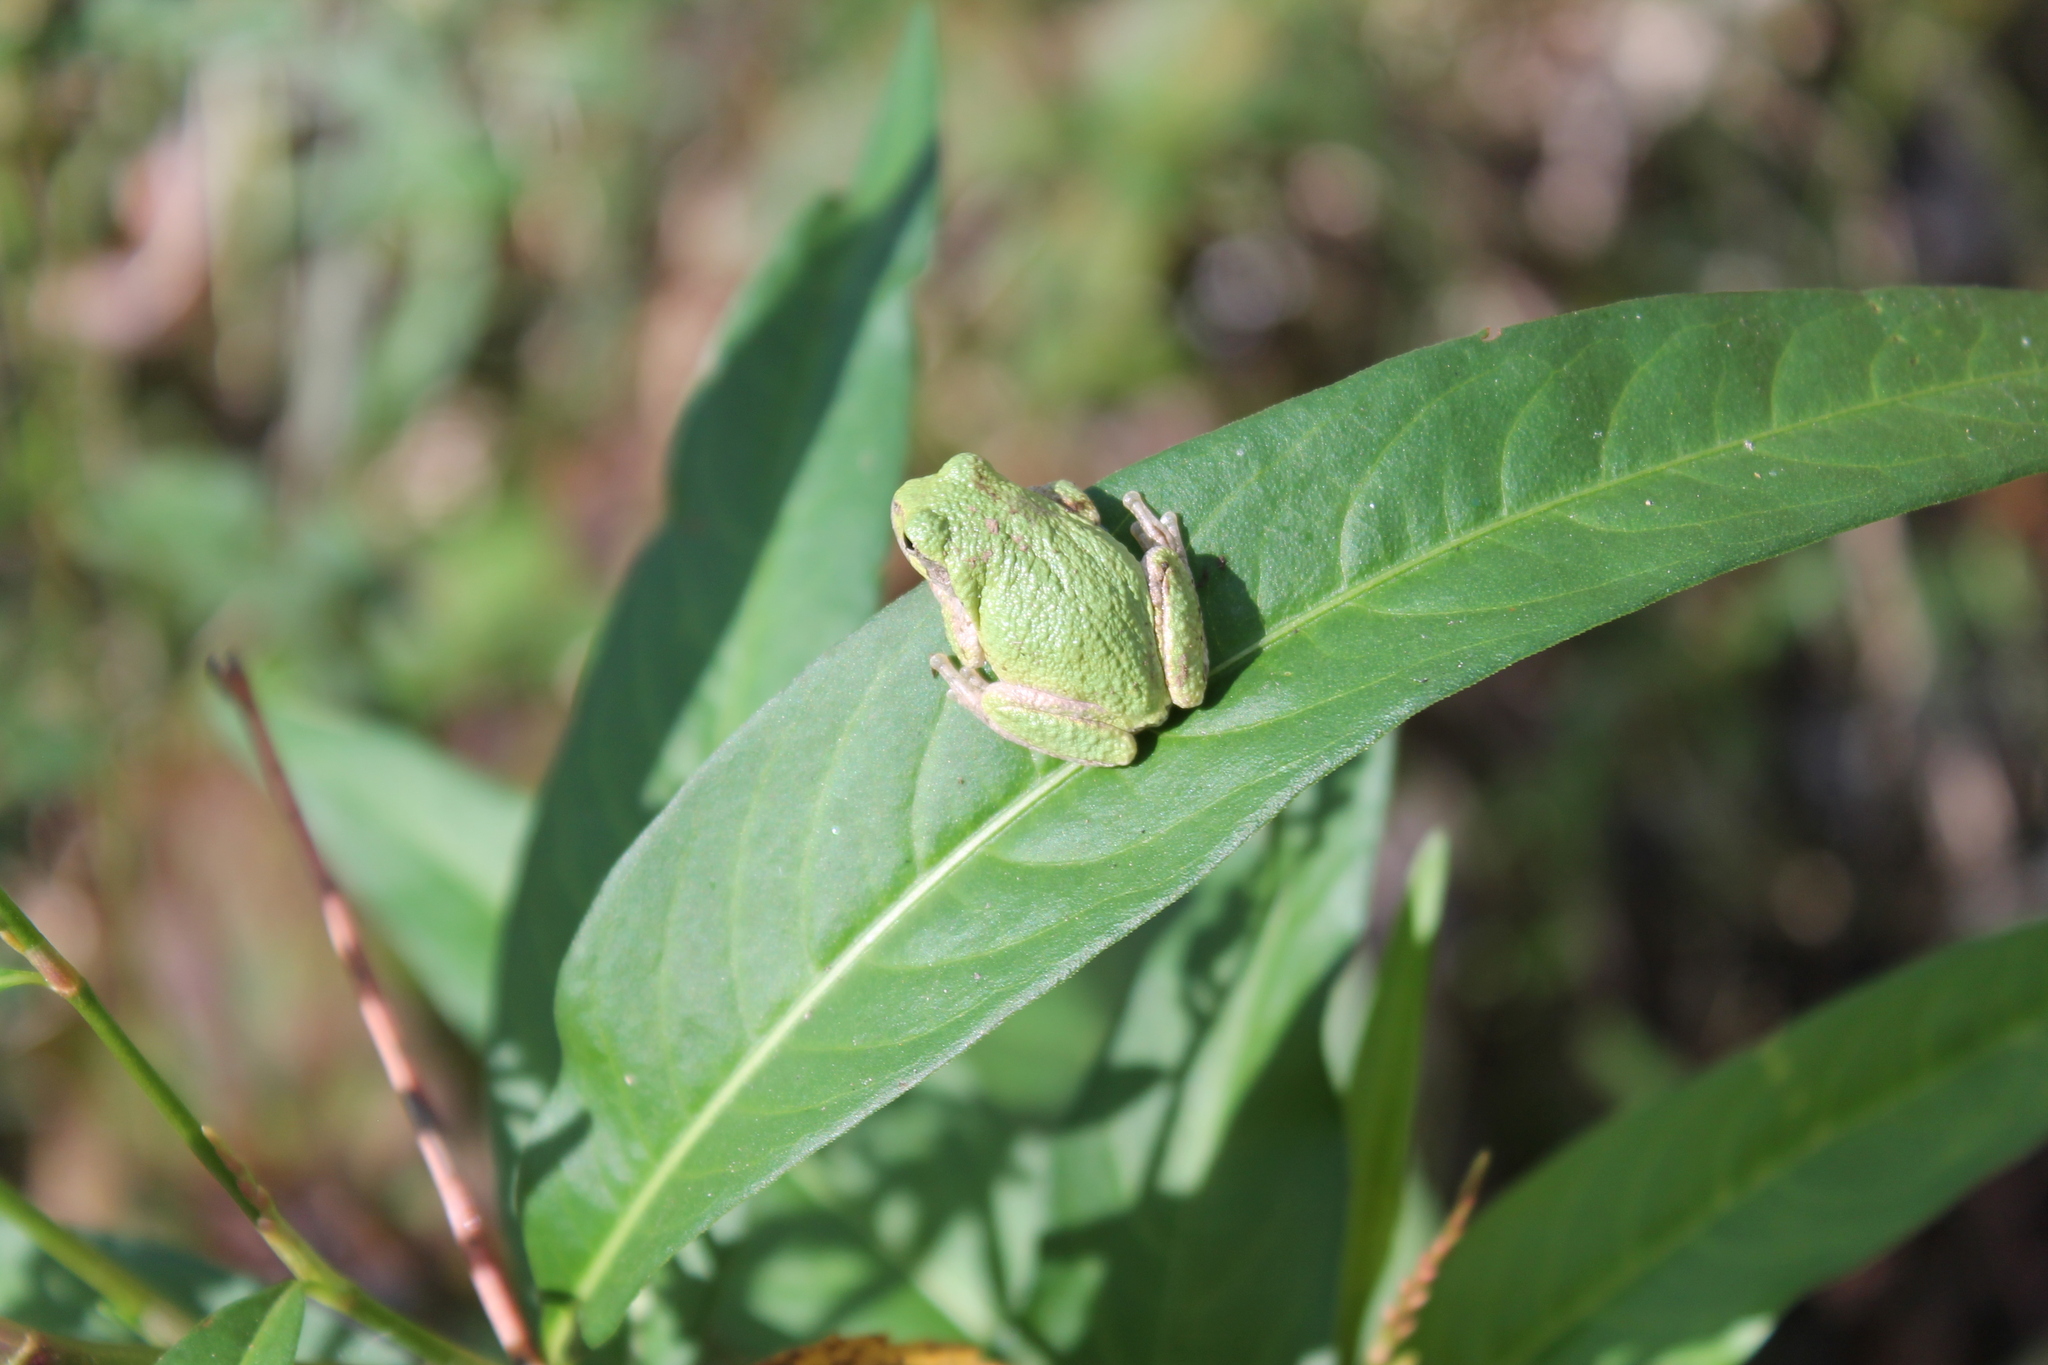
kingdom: Animalia
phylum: Chordata
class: Amphibia
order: Anura
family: Hylidae
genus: Dryophytes
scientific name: Dryophytes chrysoscelis
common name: Cope's gray treefrog
